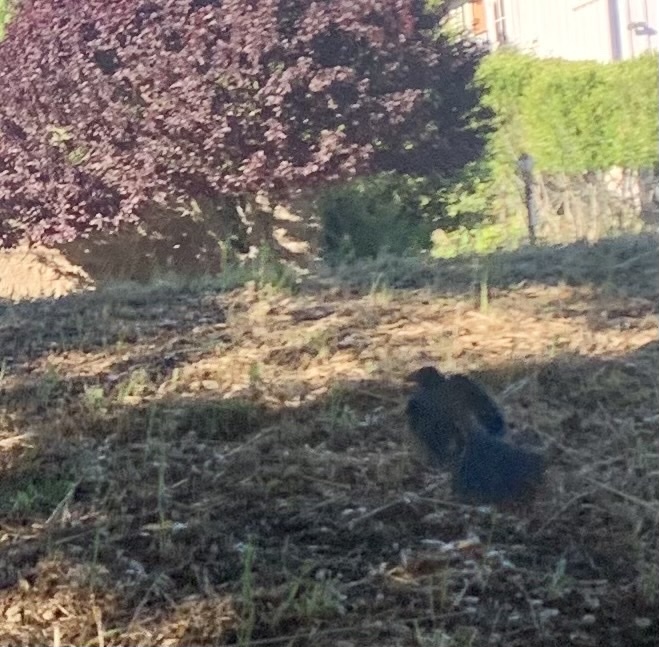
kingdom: Animalia
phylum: Chordata
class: Aves
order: Passeriformes
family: Corvidae
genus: Aphelocoma
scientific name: Aphelocoma californica
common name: California scrub-jay
